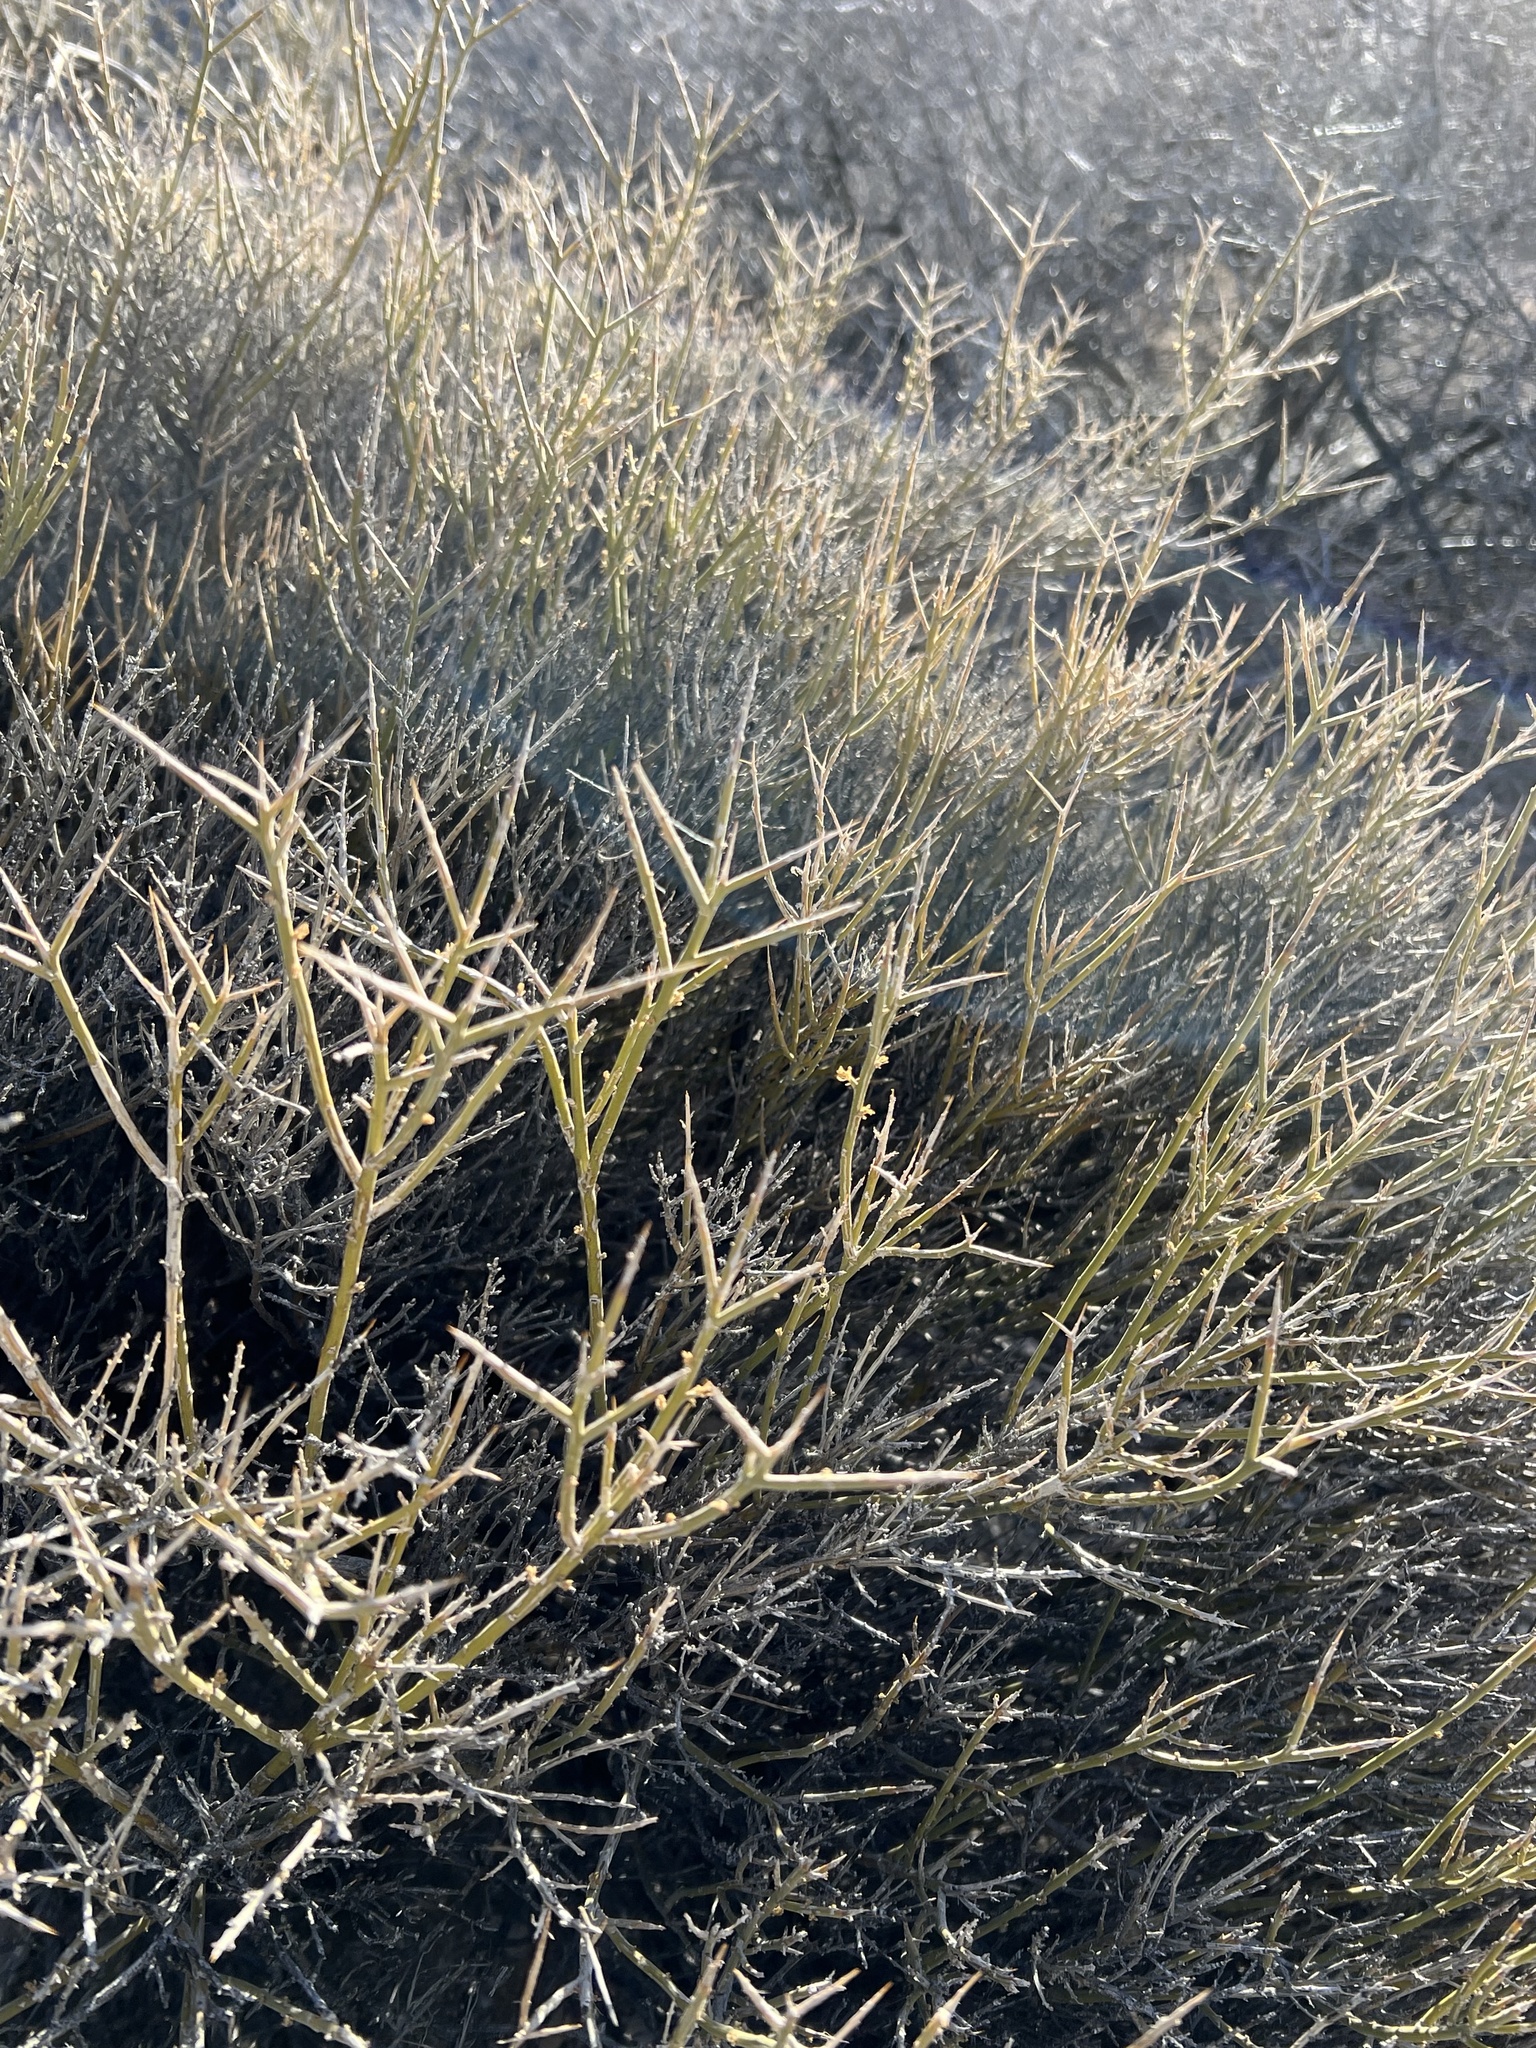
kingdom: Plantae
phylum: Tracheophyta
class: Magnoliopsida
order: Lamiales
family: Oleaceae
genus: Menodora
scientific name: Menodora spinescens
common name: Spiny menodora
